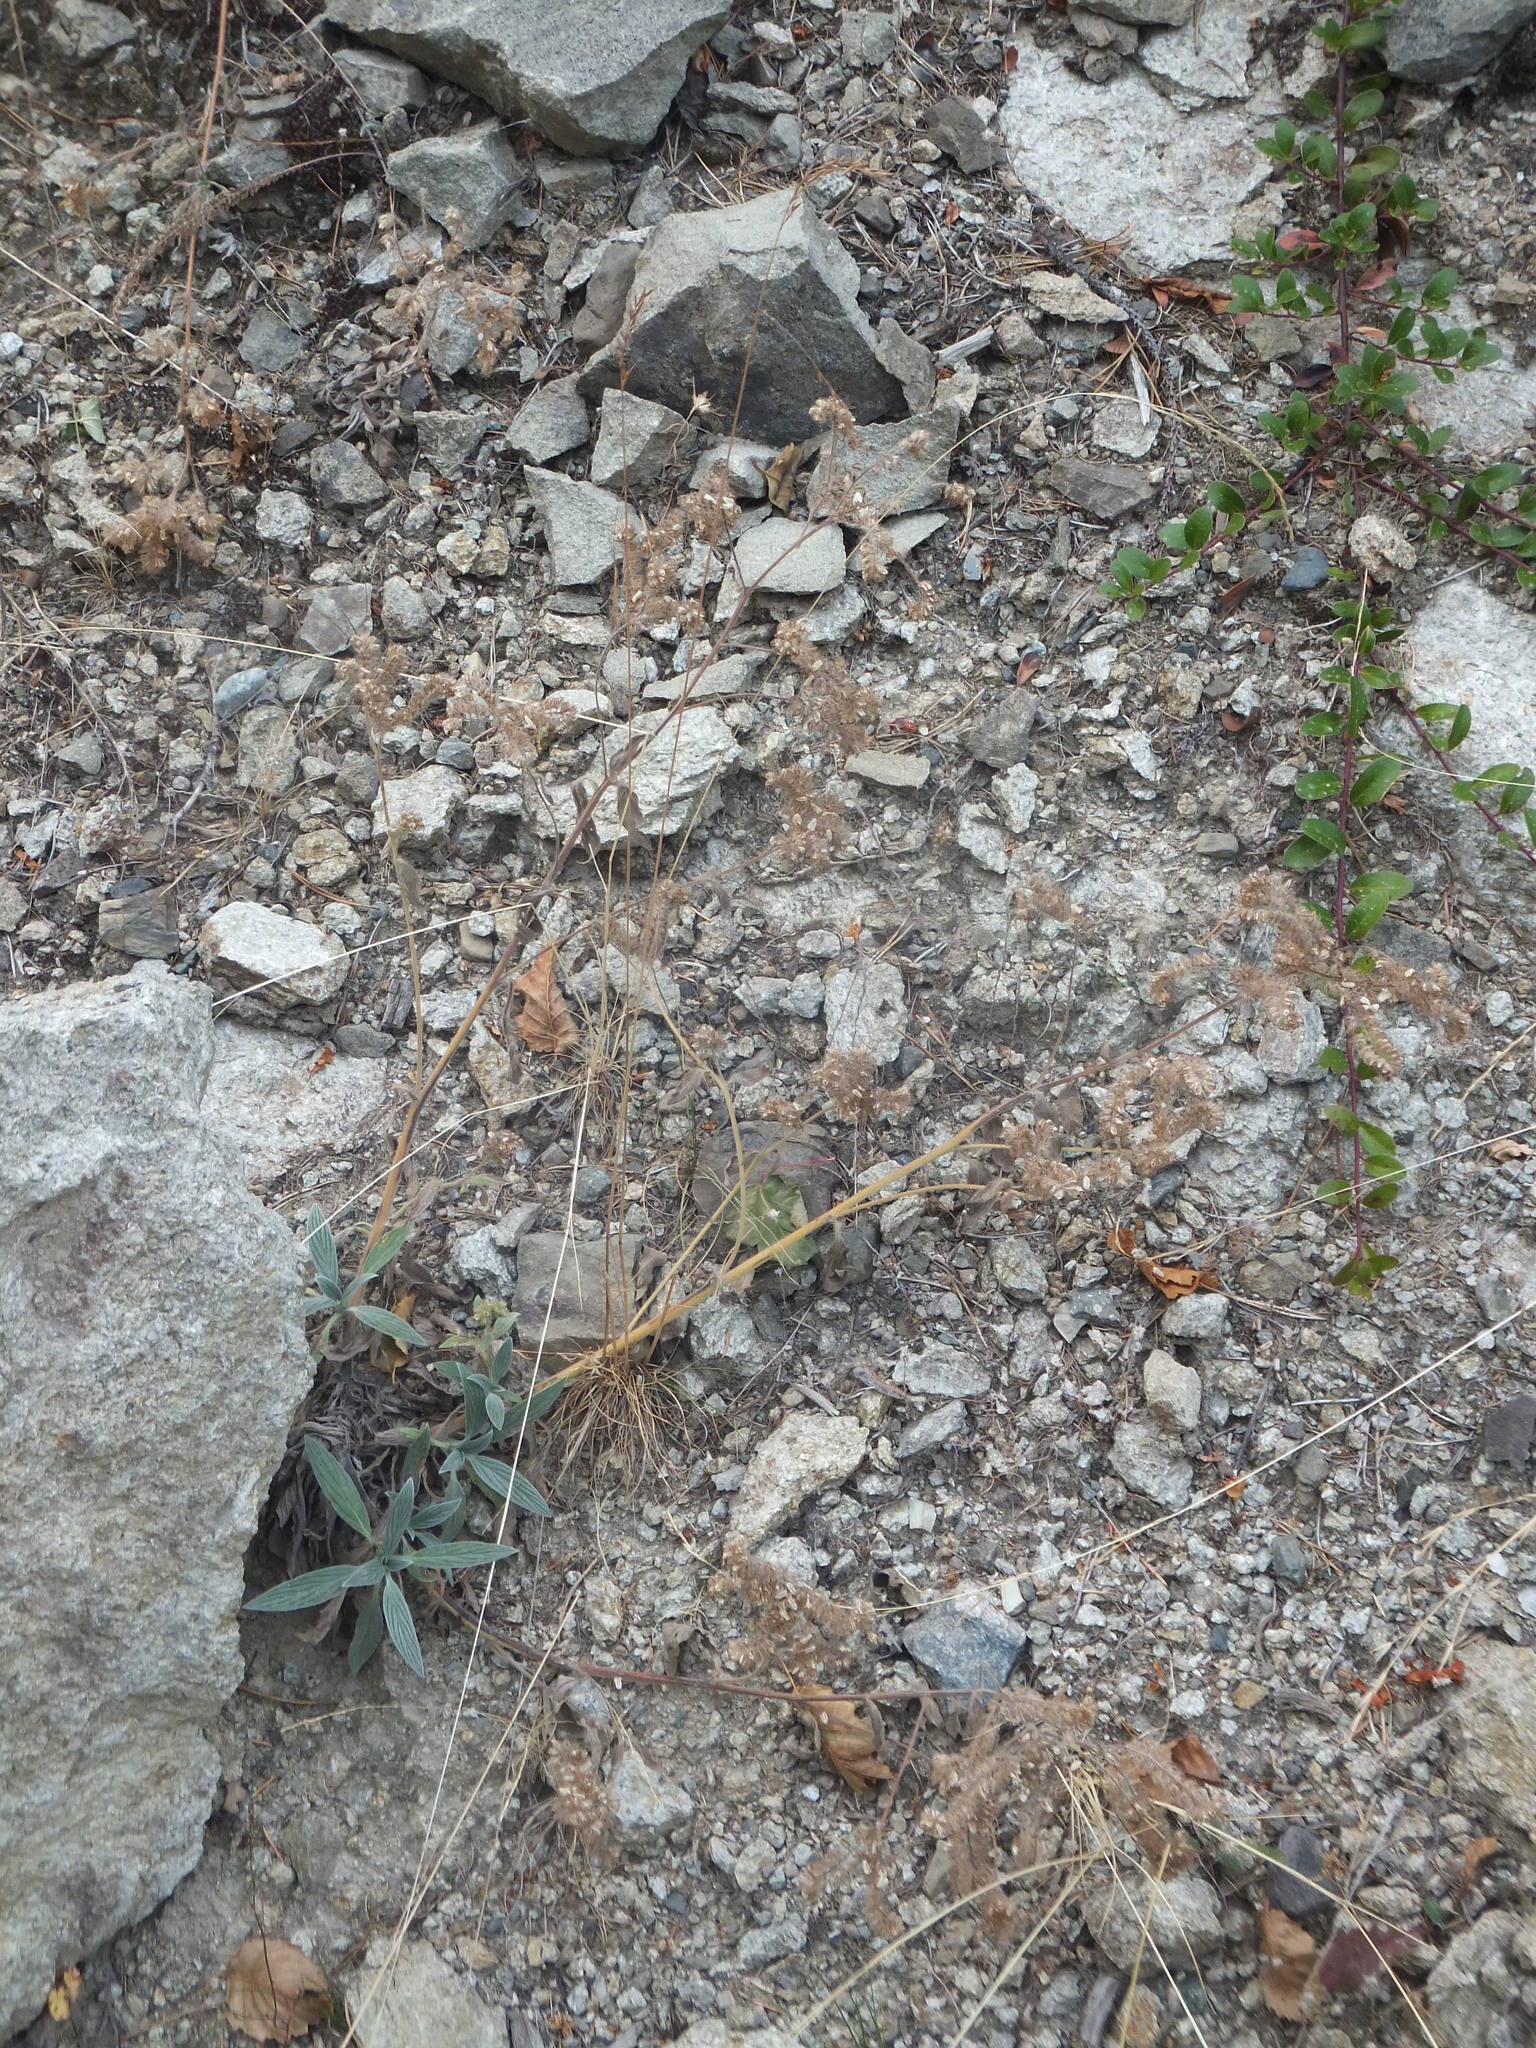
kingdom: Plantae
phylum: Tracheophyta
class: Magnoliopsida
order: Boraginales
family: Hydrophyllaceae
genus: Phacelia
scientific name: Phacelia hastata
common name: Silver-leaved phacelia
